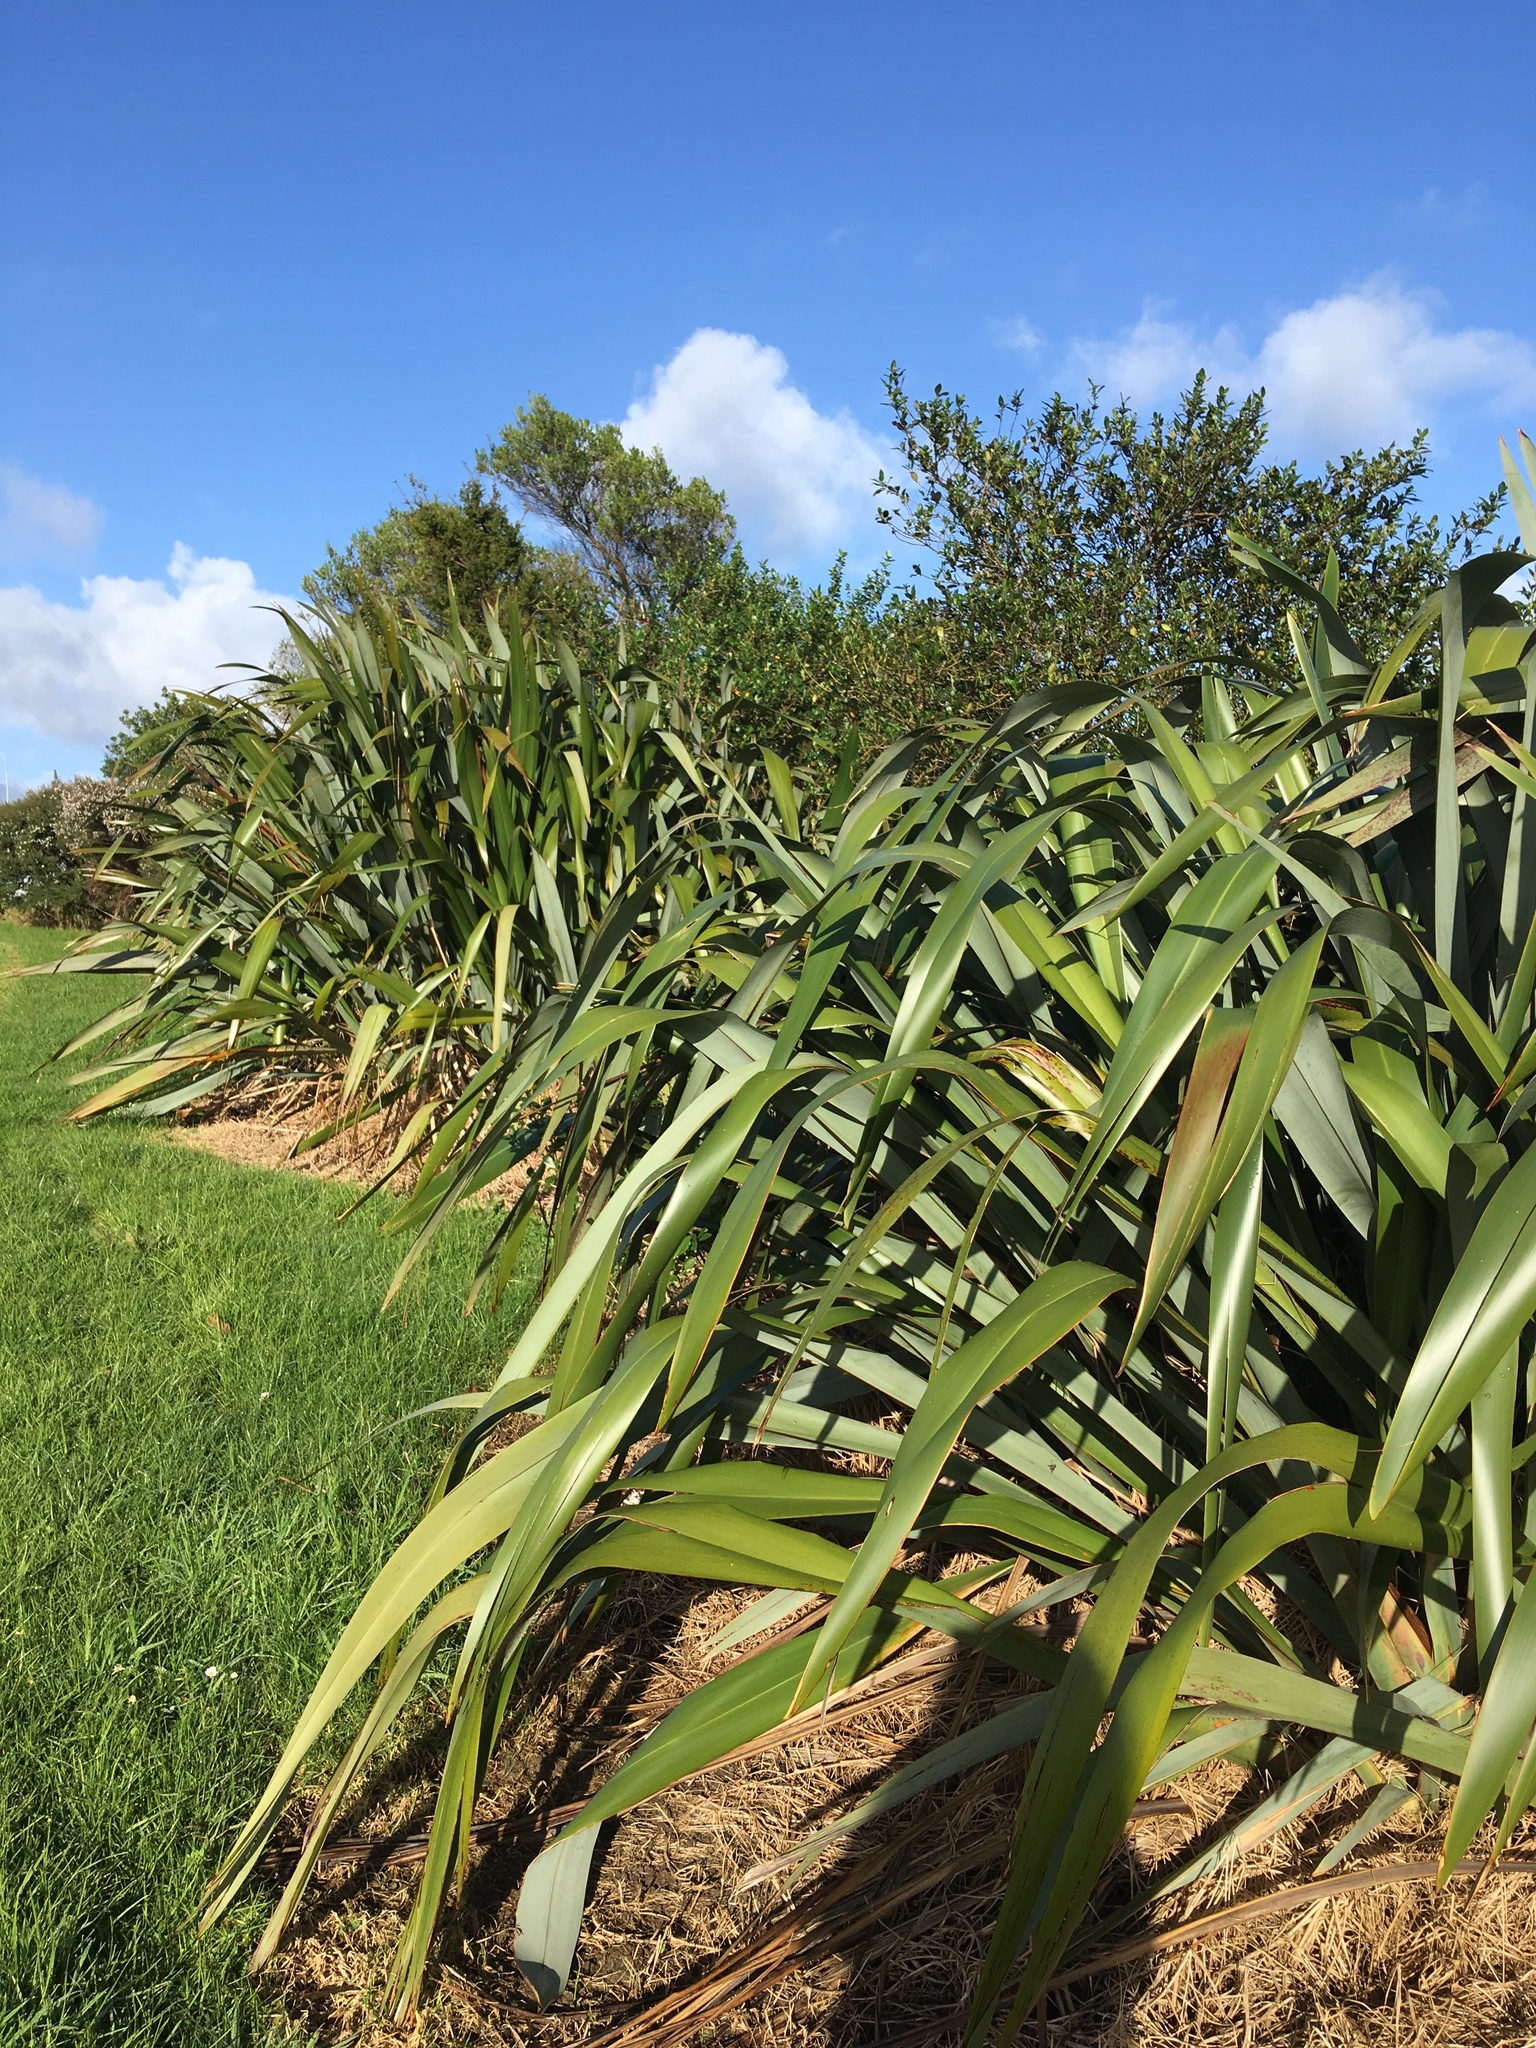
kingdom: Plantae
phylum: Tracheophyta
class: Liliopsida
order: Poales
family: Poaceae
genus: Cenchrus
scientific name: Cenchrus clandestinus
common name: Kikuyugrass
